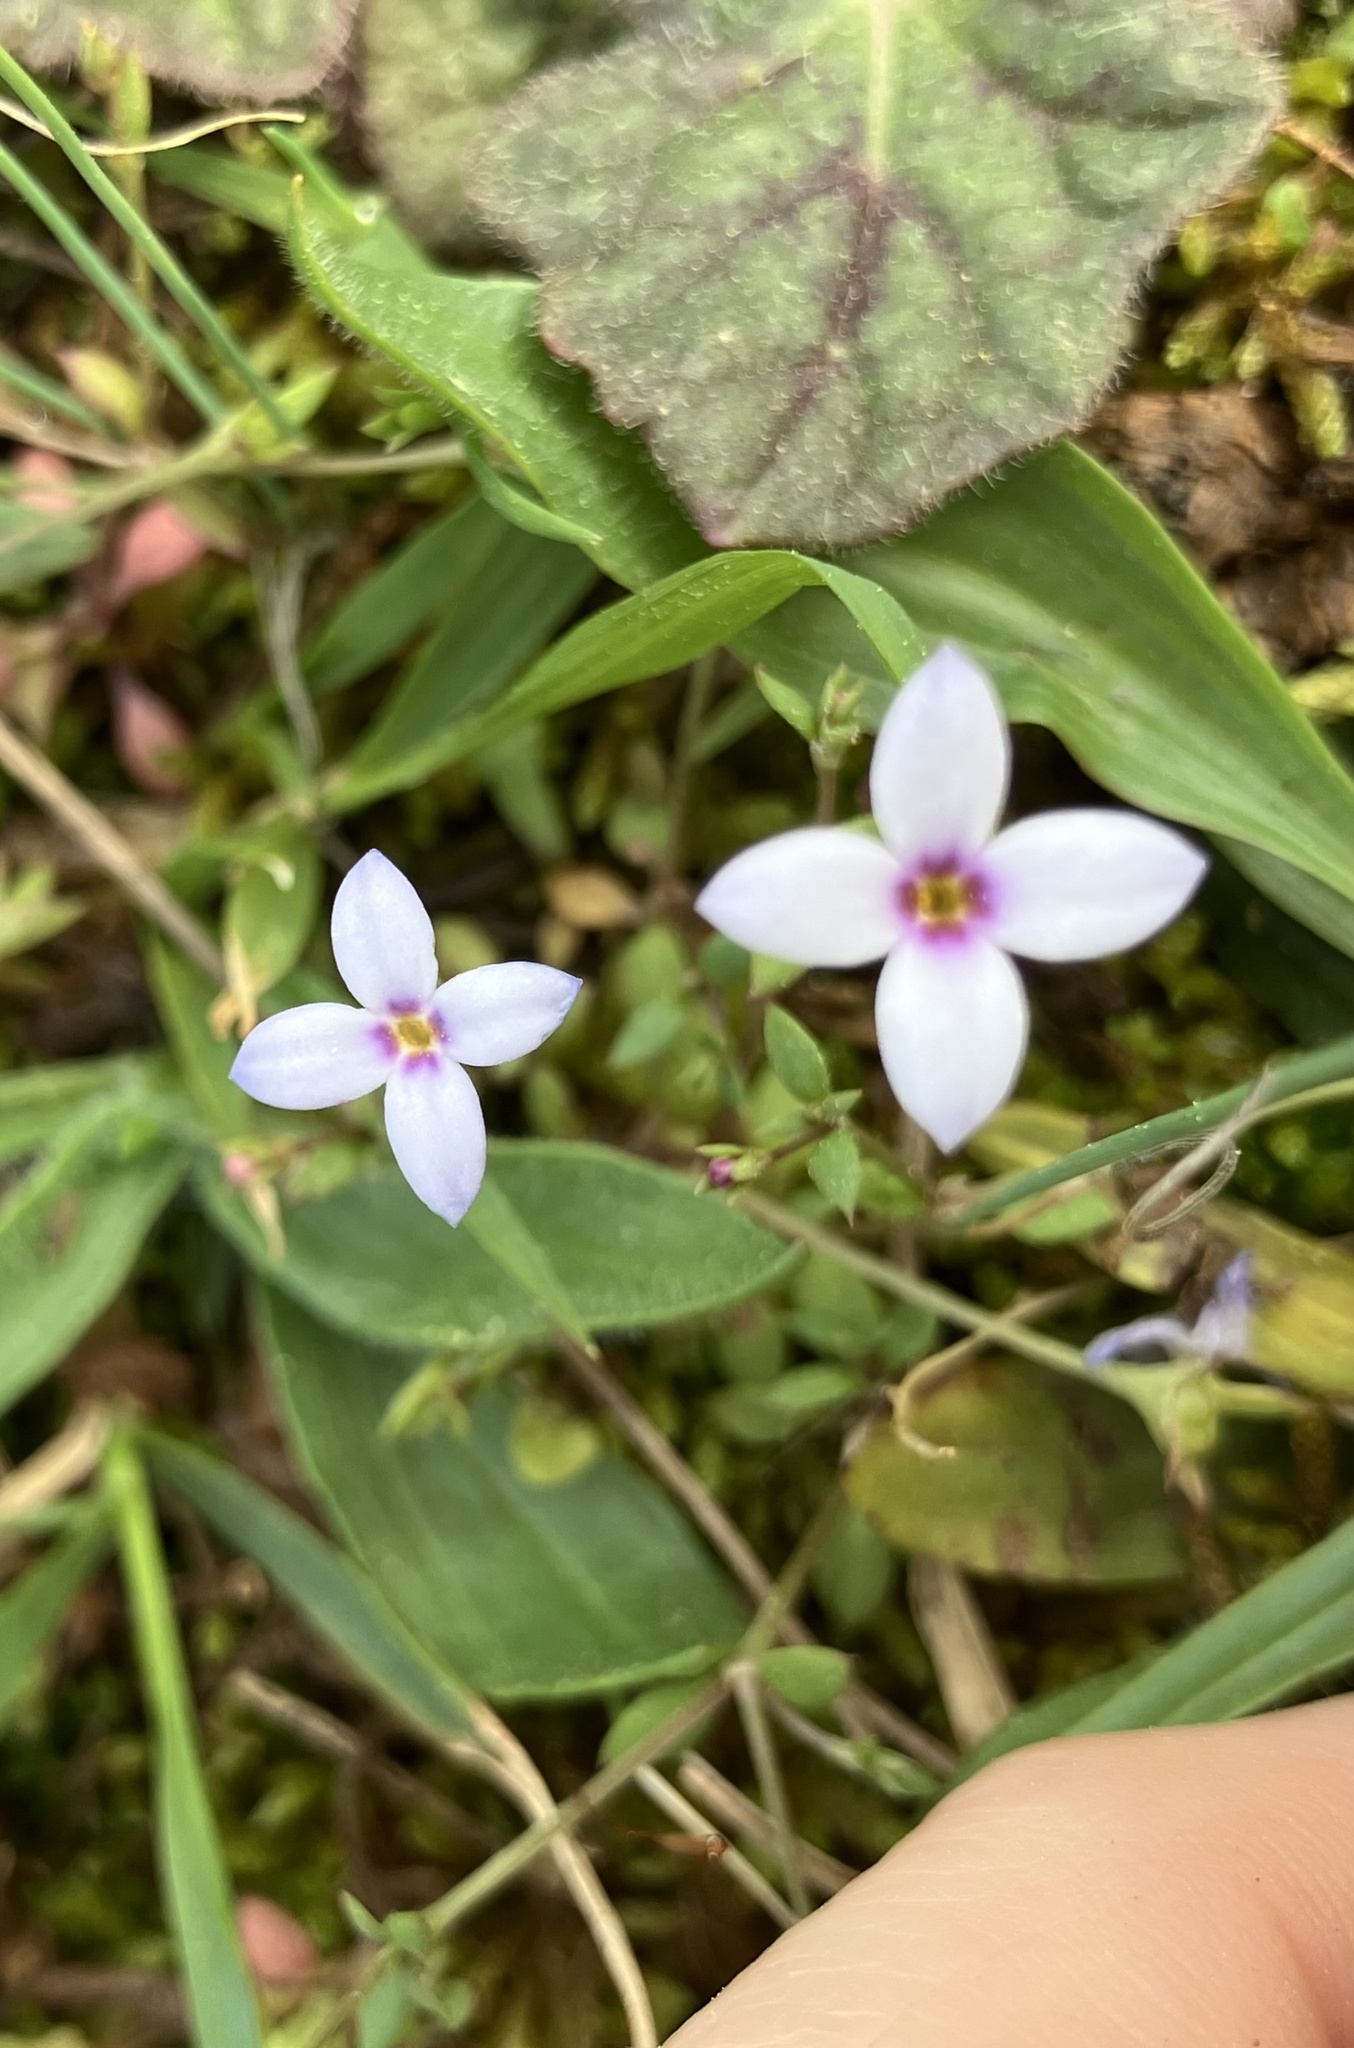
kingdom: Plantae
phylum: Tracheophyta
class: Magnoliopsida
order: Gentianales
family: Rubiaceae
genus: Houstonia
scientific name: Houstonia pusilla
